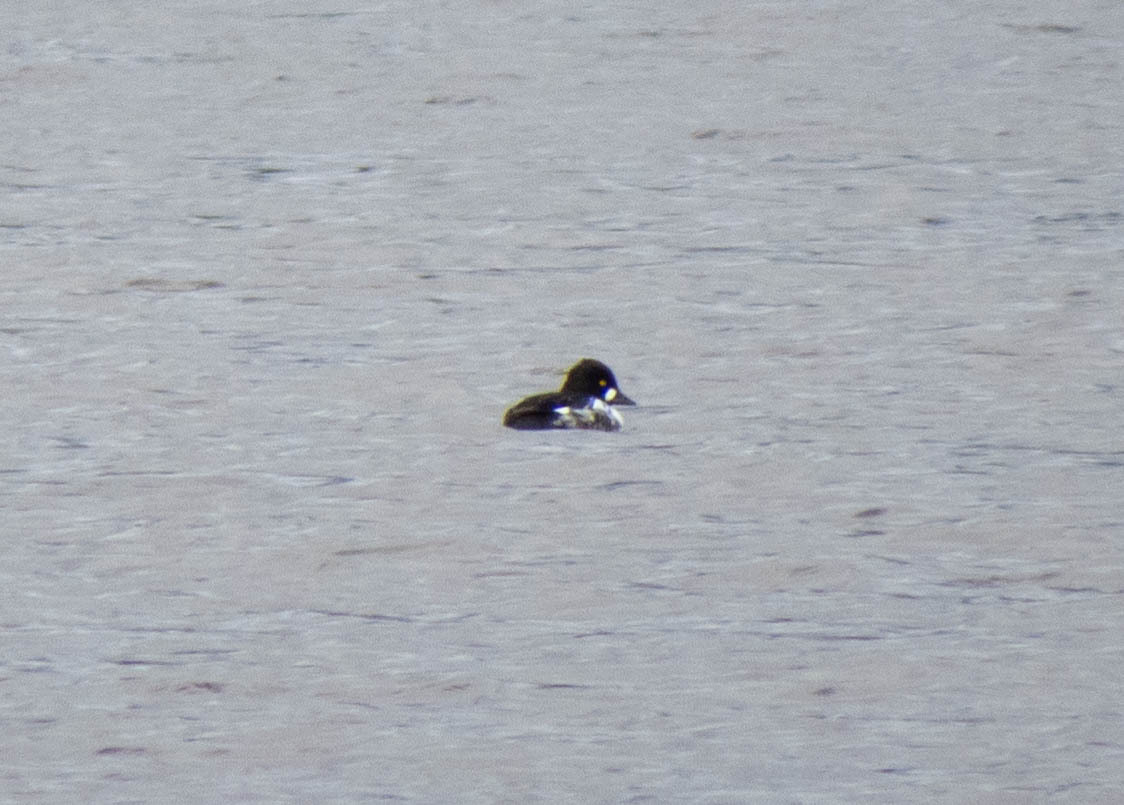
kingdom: Animalia
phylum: Chordata
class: Aves
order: Anseriformes
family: Anatidae
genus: Bucephala
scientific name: Bucephala clangula
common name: Common goldeneye
